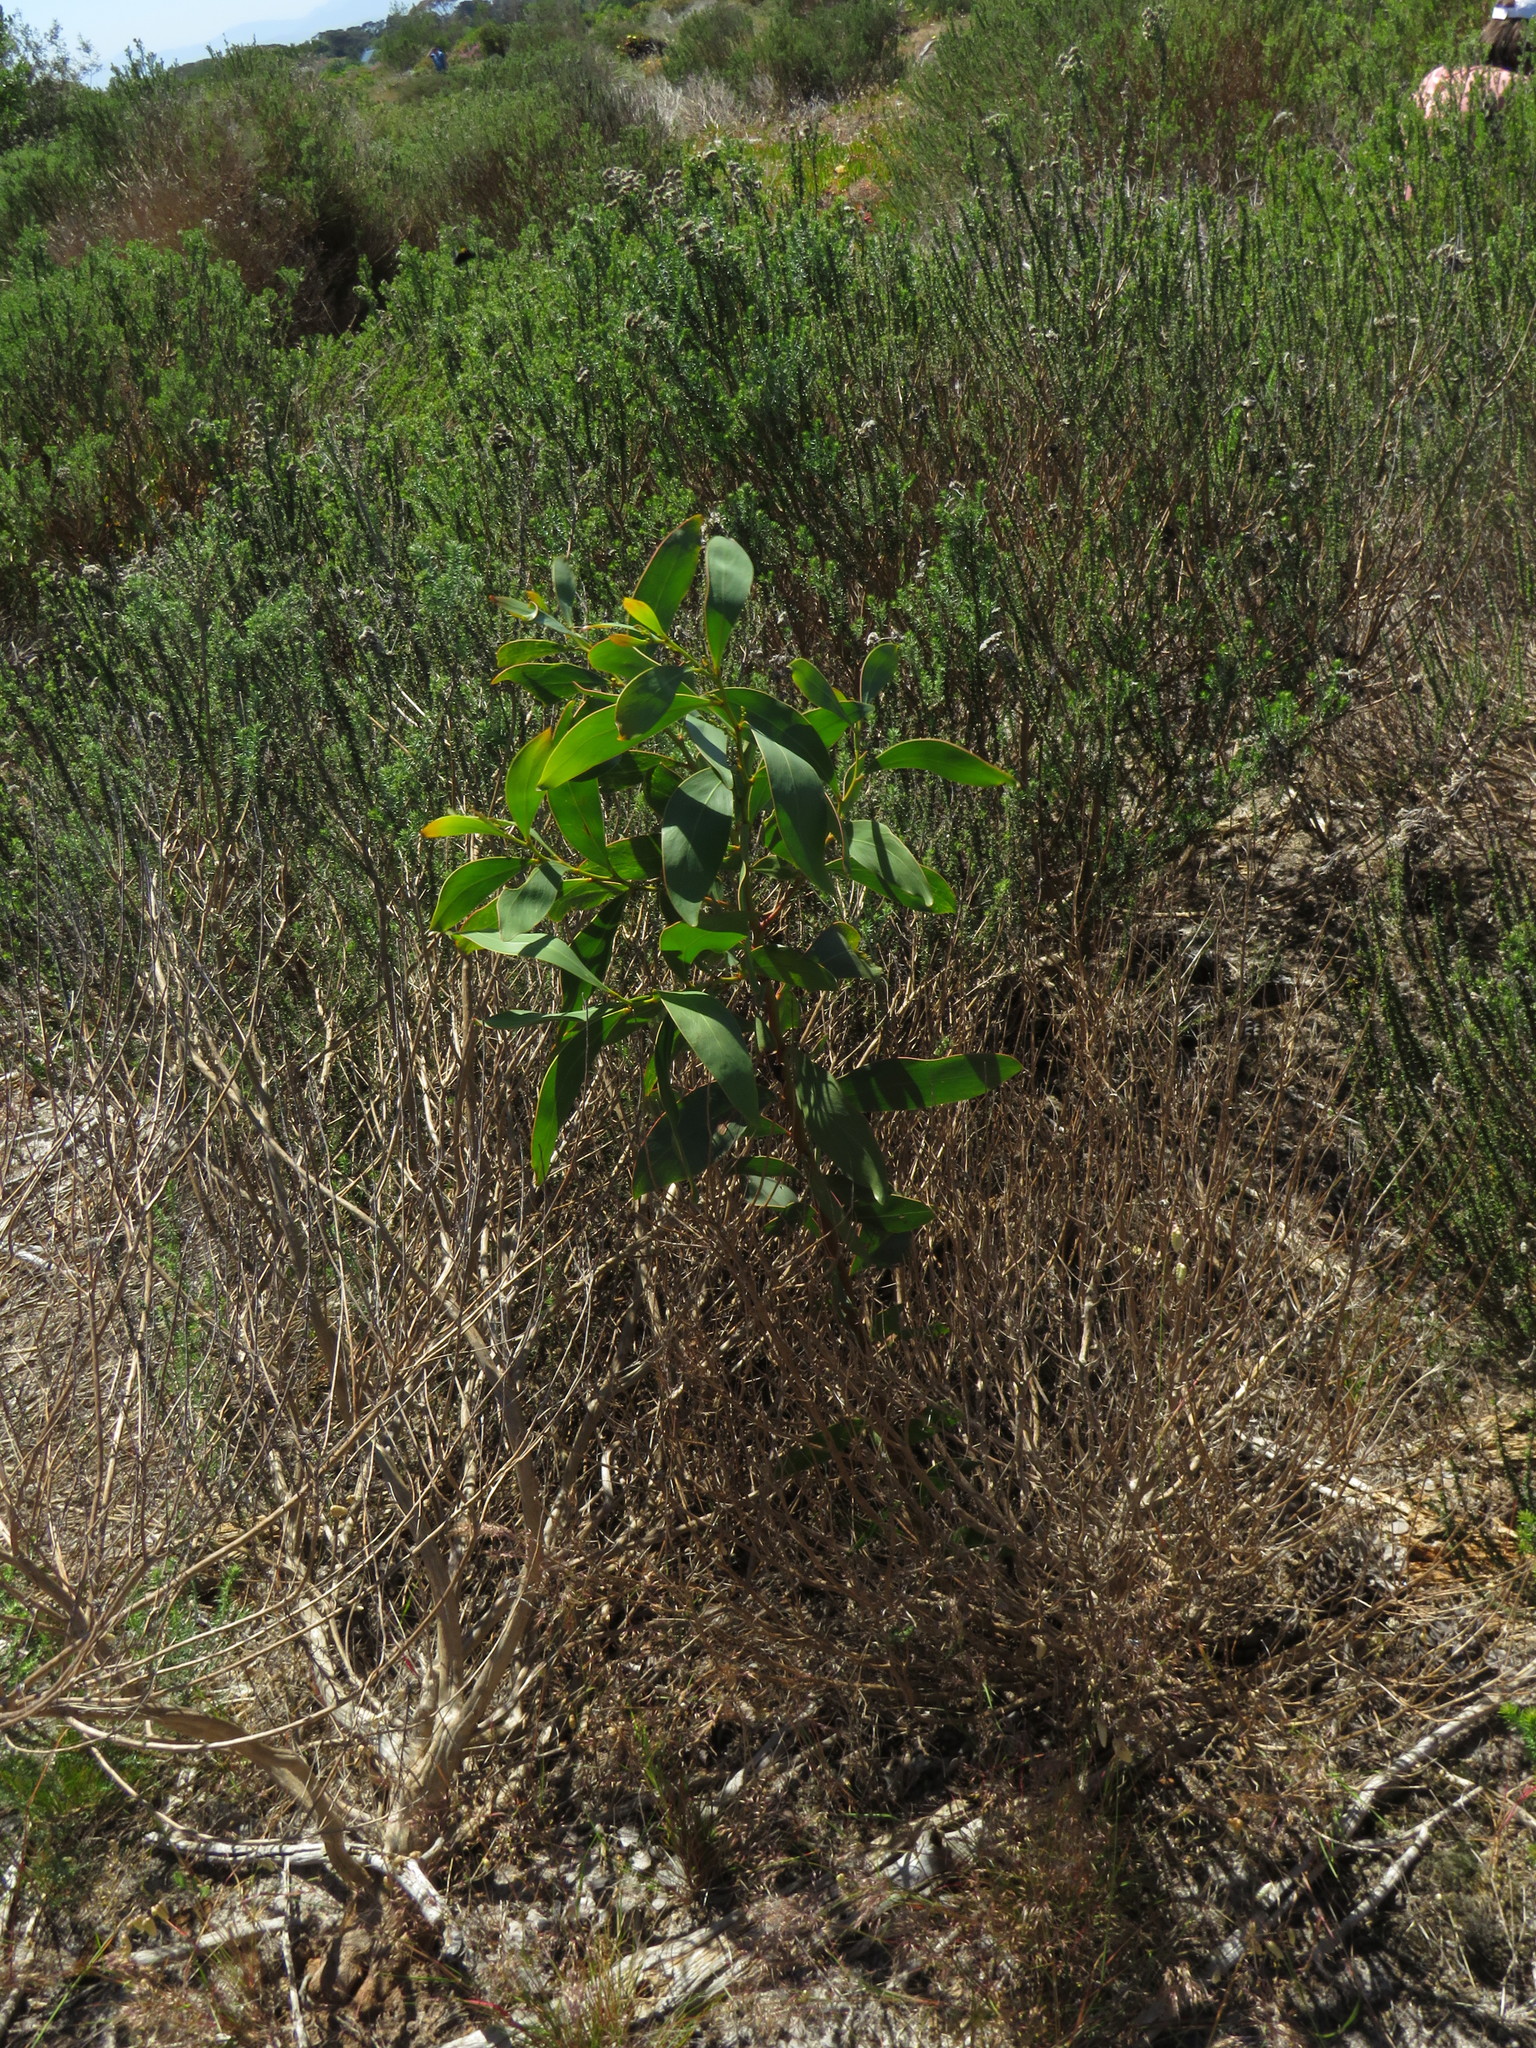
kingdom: Plantae
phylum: Tracheophyta
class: Magnoliopsida
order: Fabales
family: Fabaceae
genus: Acacia
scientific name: Acacia pycnantha
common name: Golden wattle
